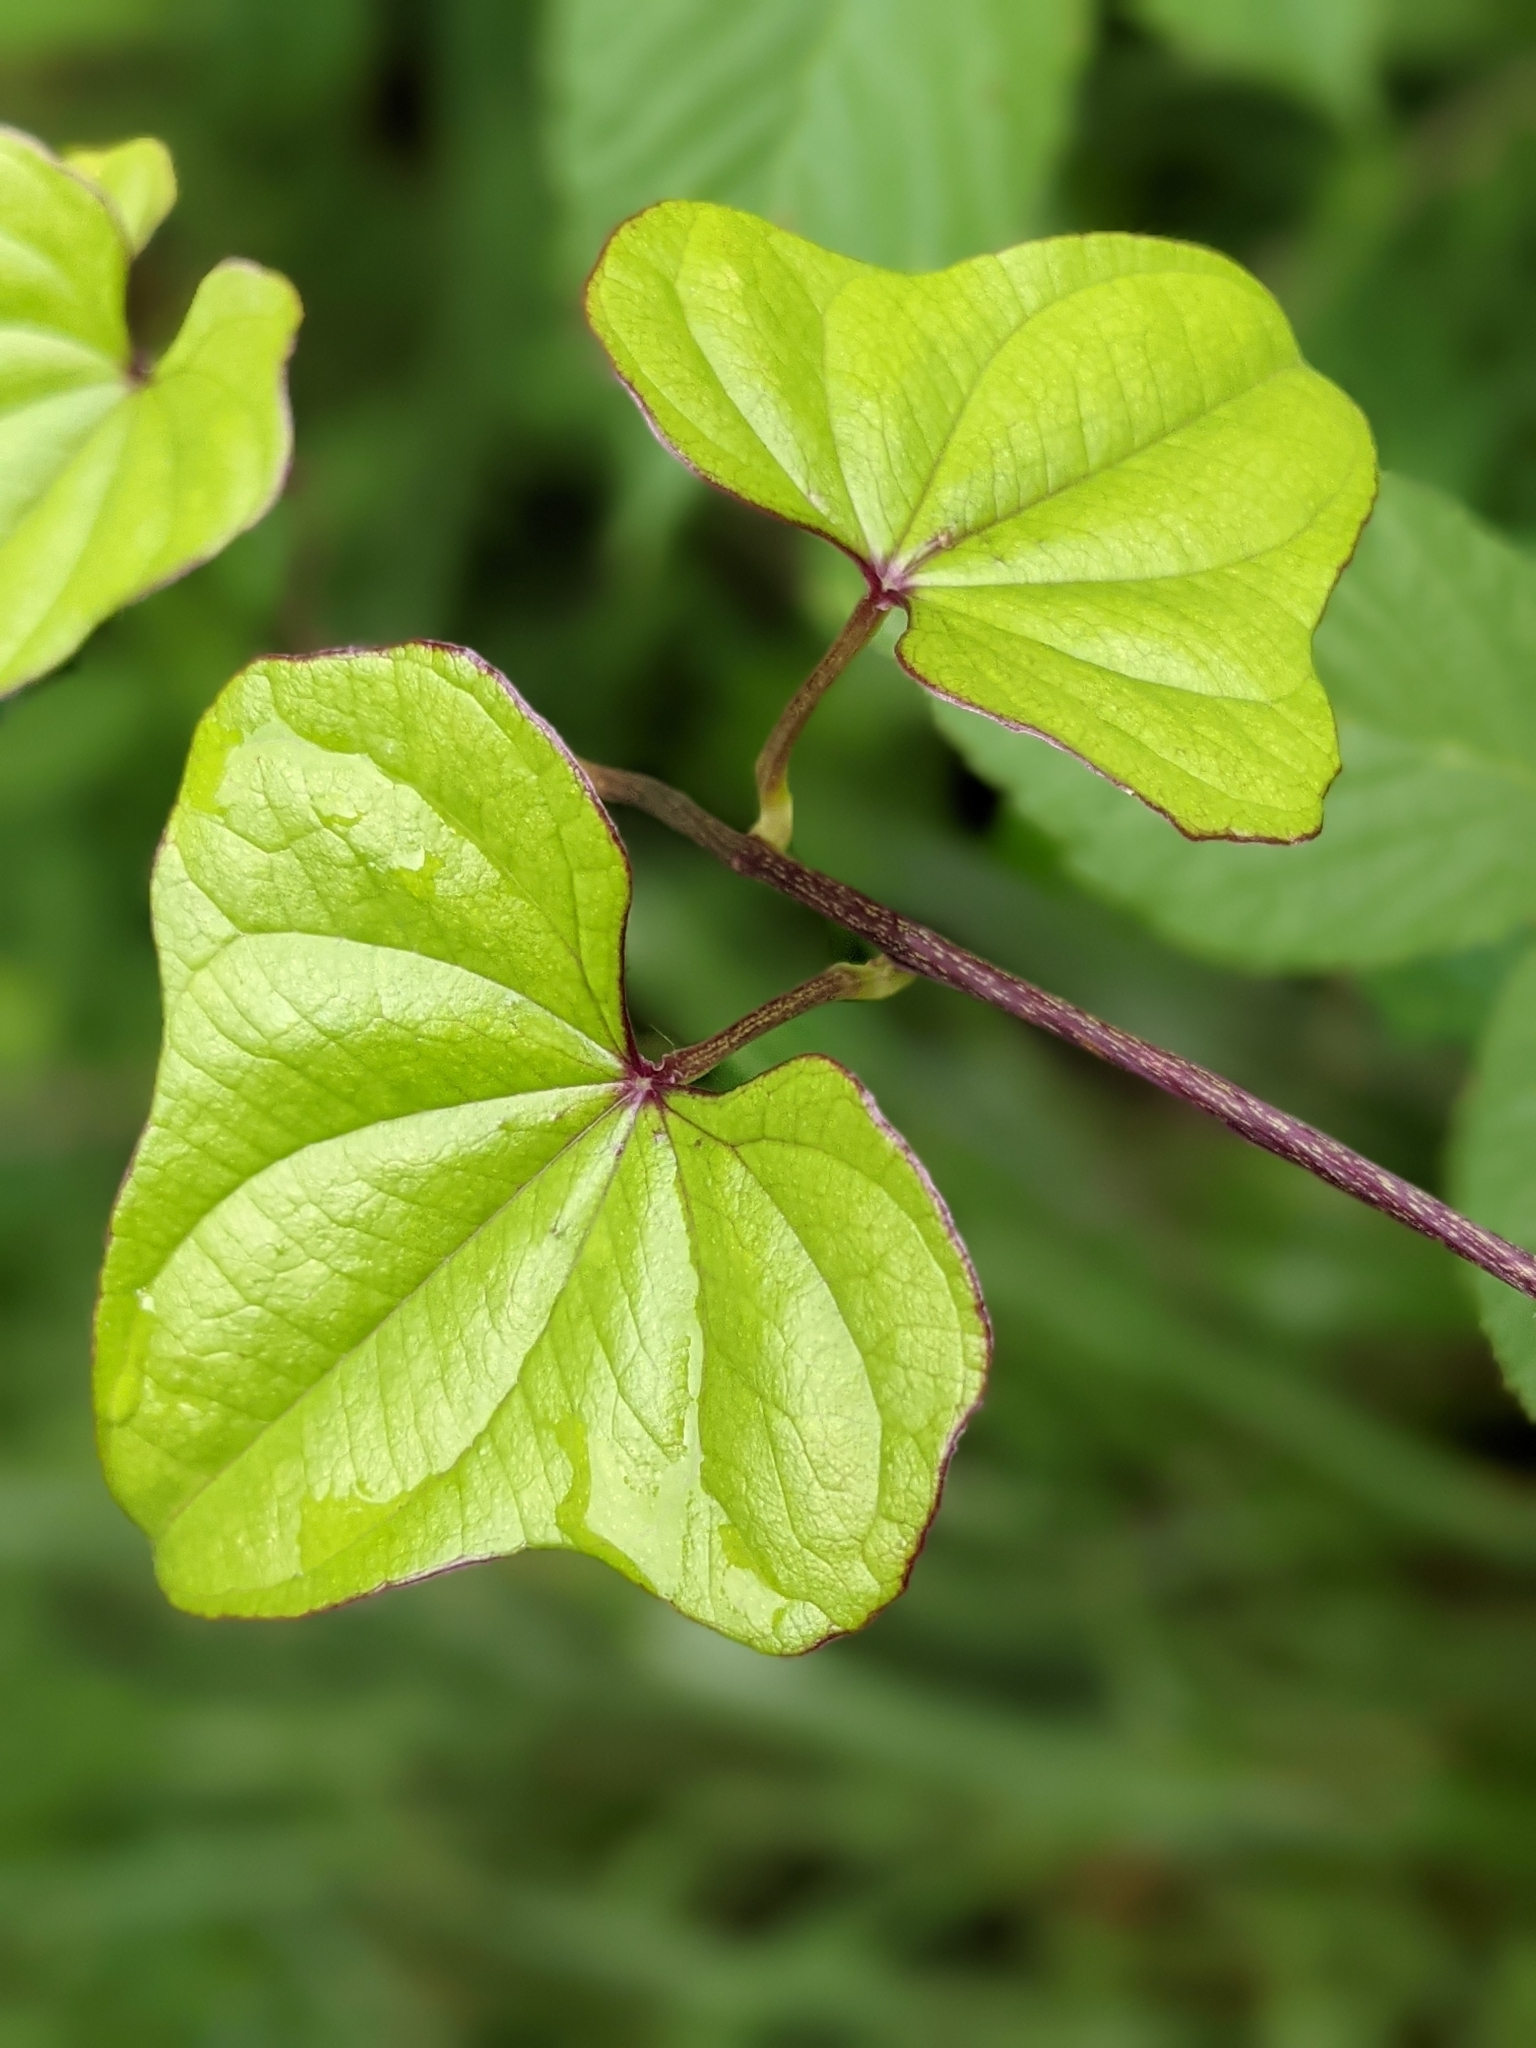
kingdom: Plantae
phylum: Tracheophyta
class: Liliopsida
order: Dioscoreales
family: Dioscoreaceae
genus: Dioscorea
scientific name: Dioscorea polystachya
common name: Chinese yam
